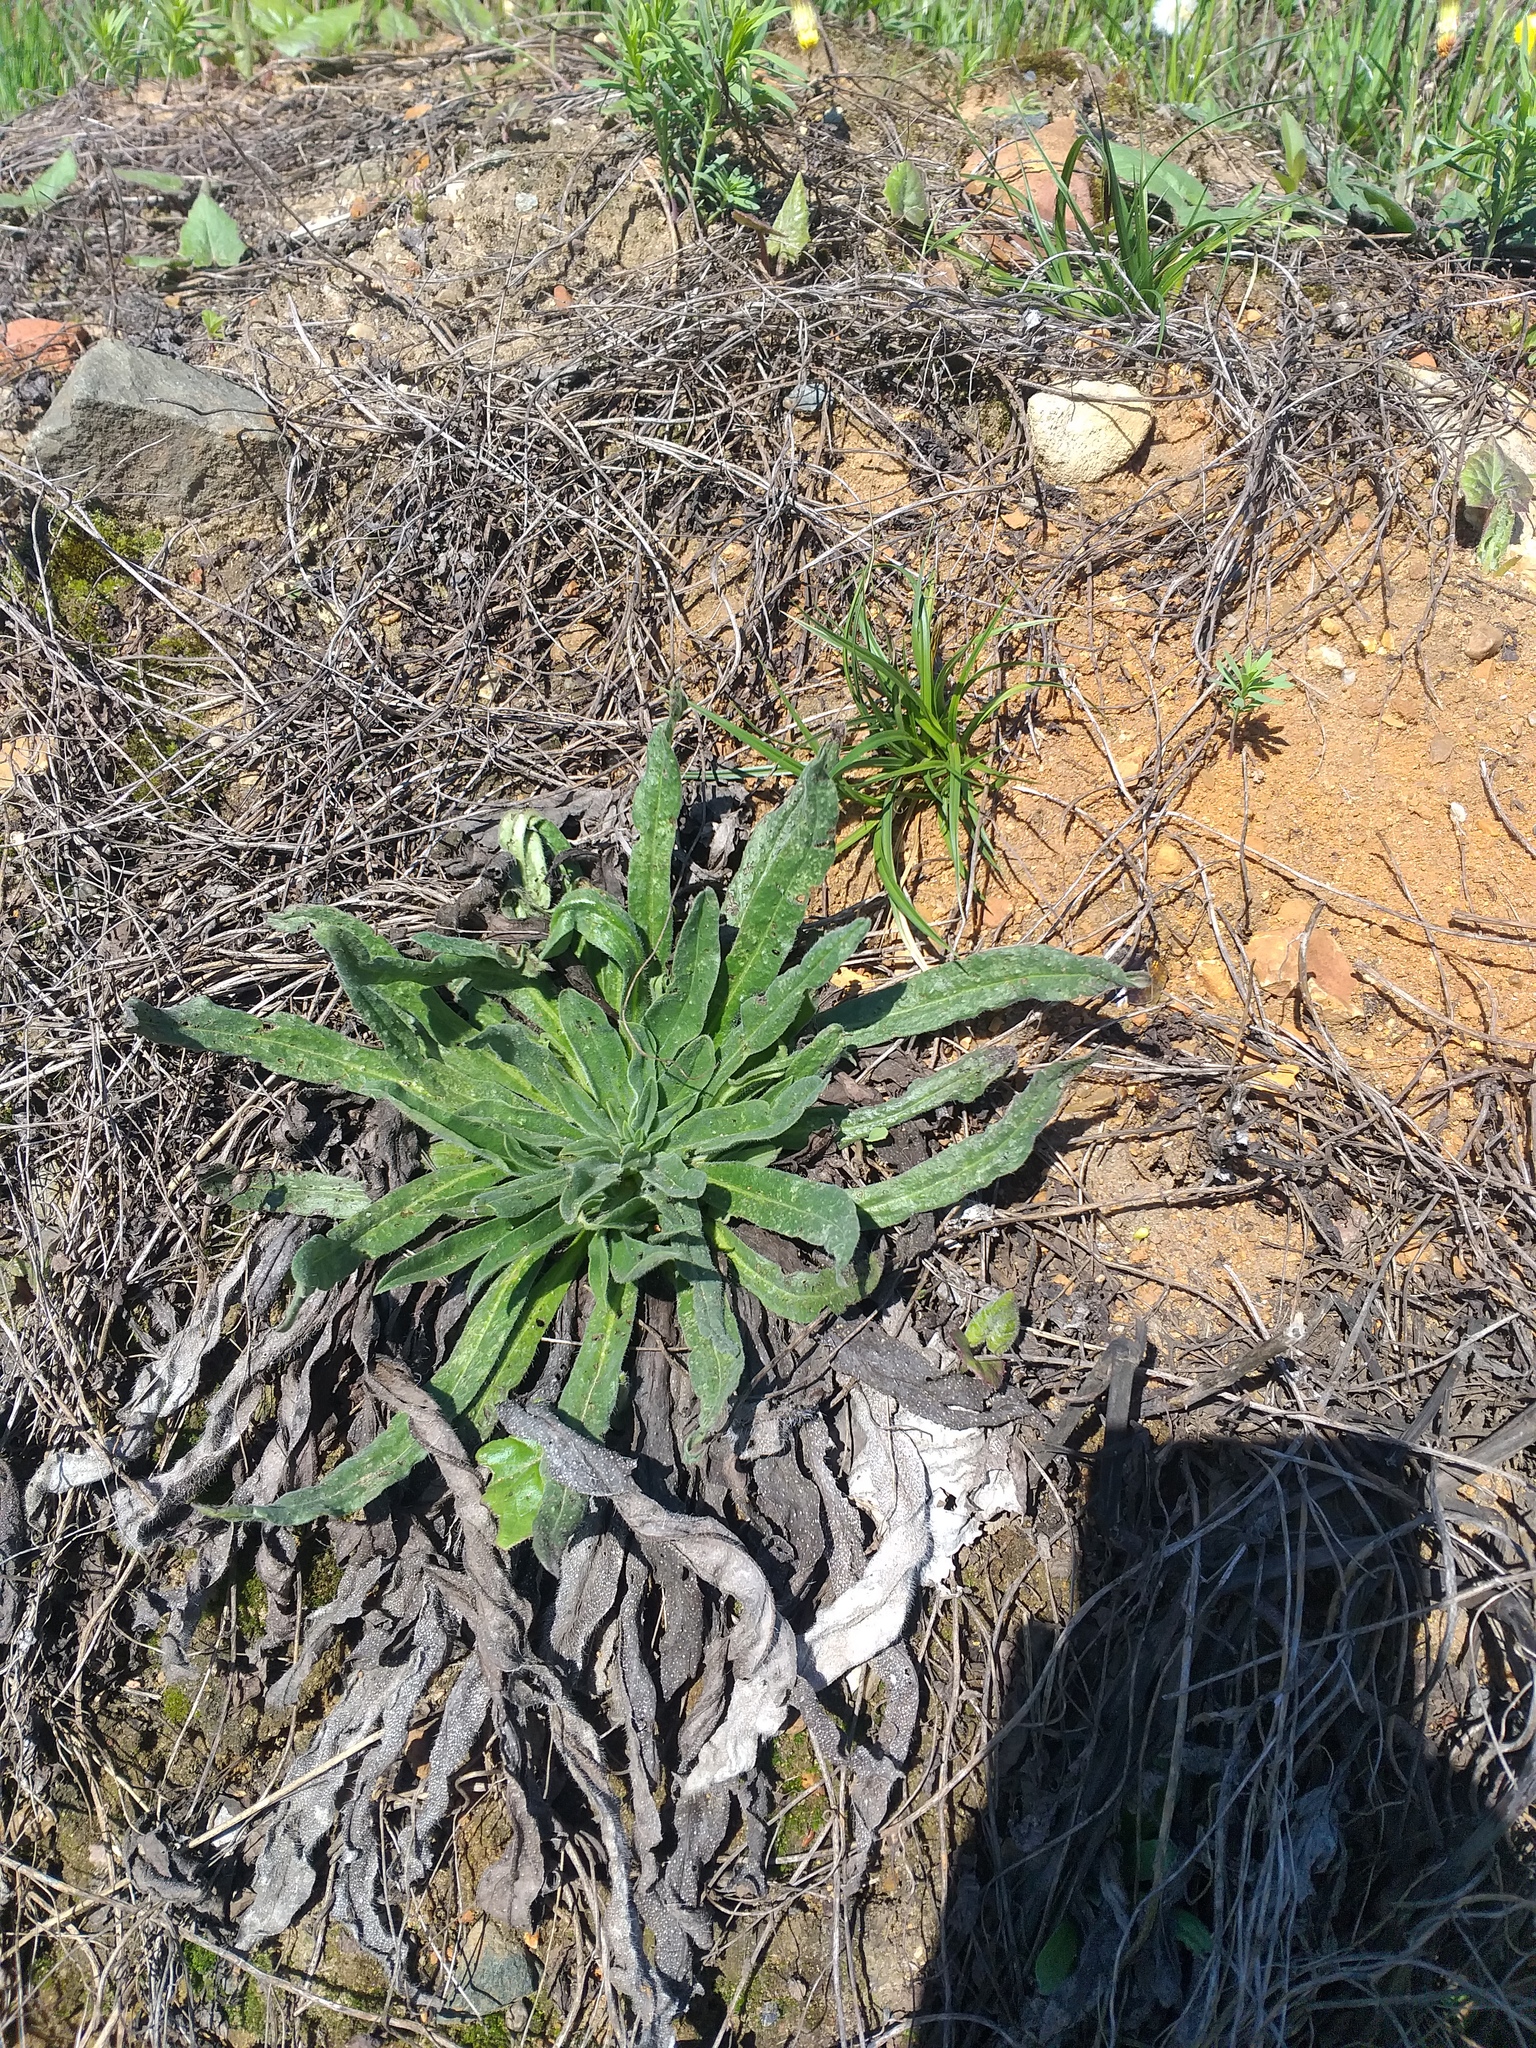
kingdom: Plantae
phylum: Tracheophyta
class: Magnoliopsida
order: Boraginales
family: Boraginaceae
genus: Echium
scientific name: Echium vulgare
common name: Common viper's bugloss
